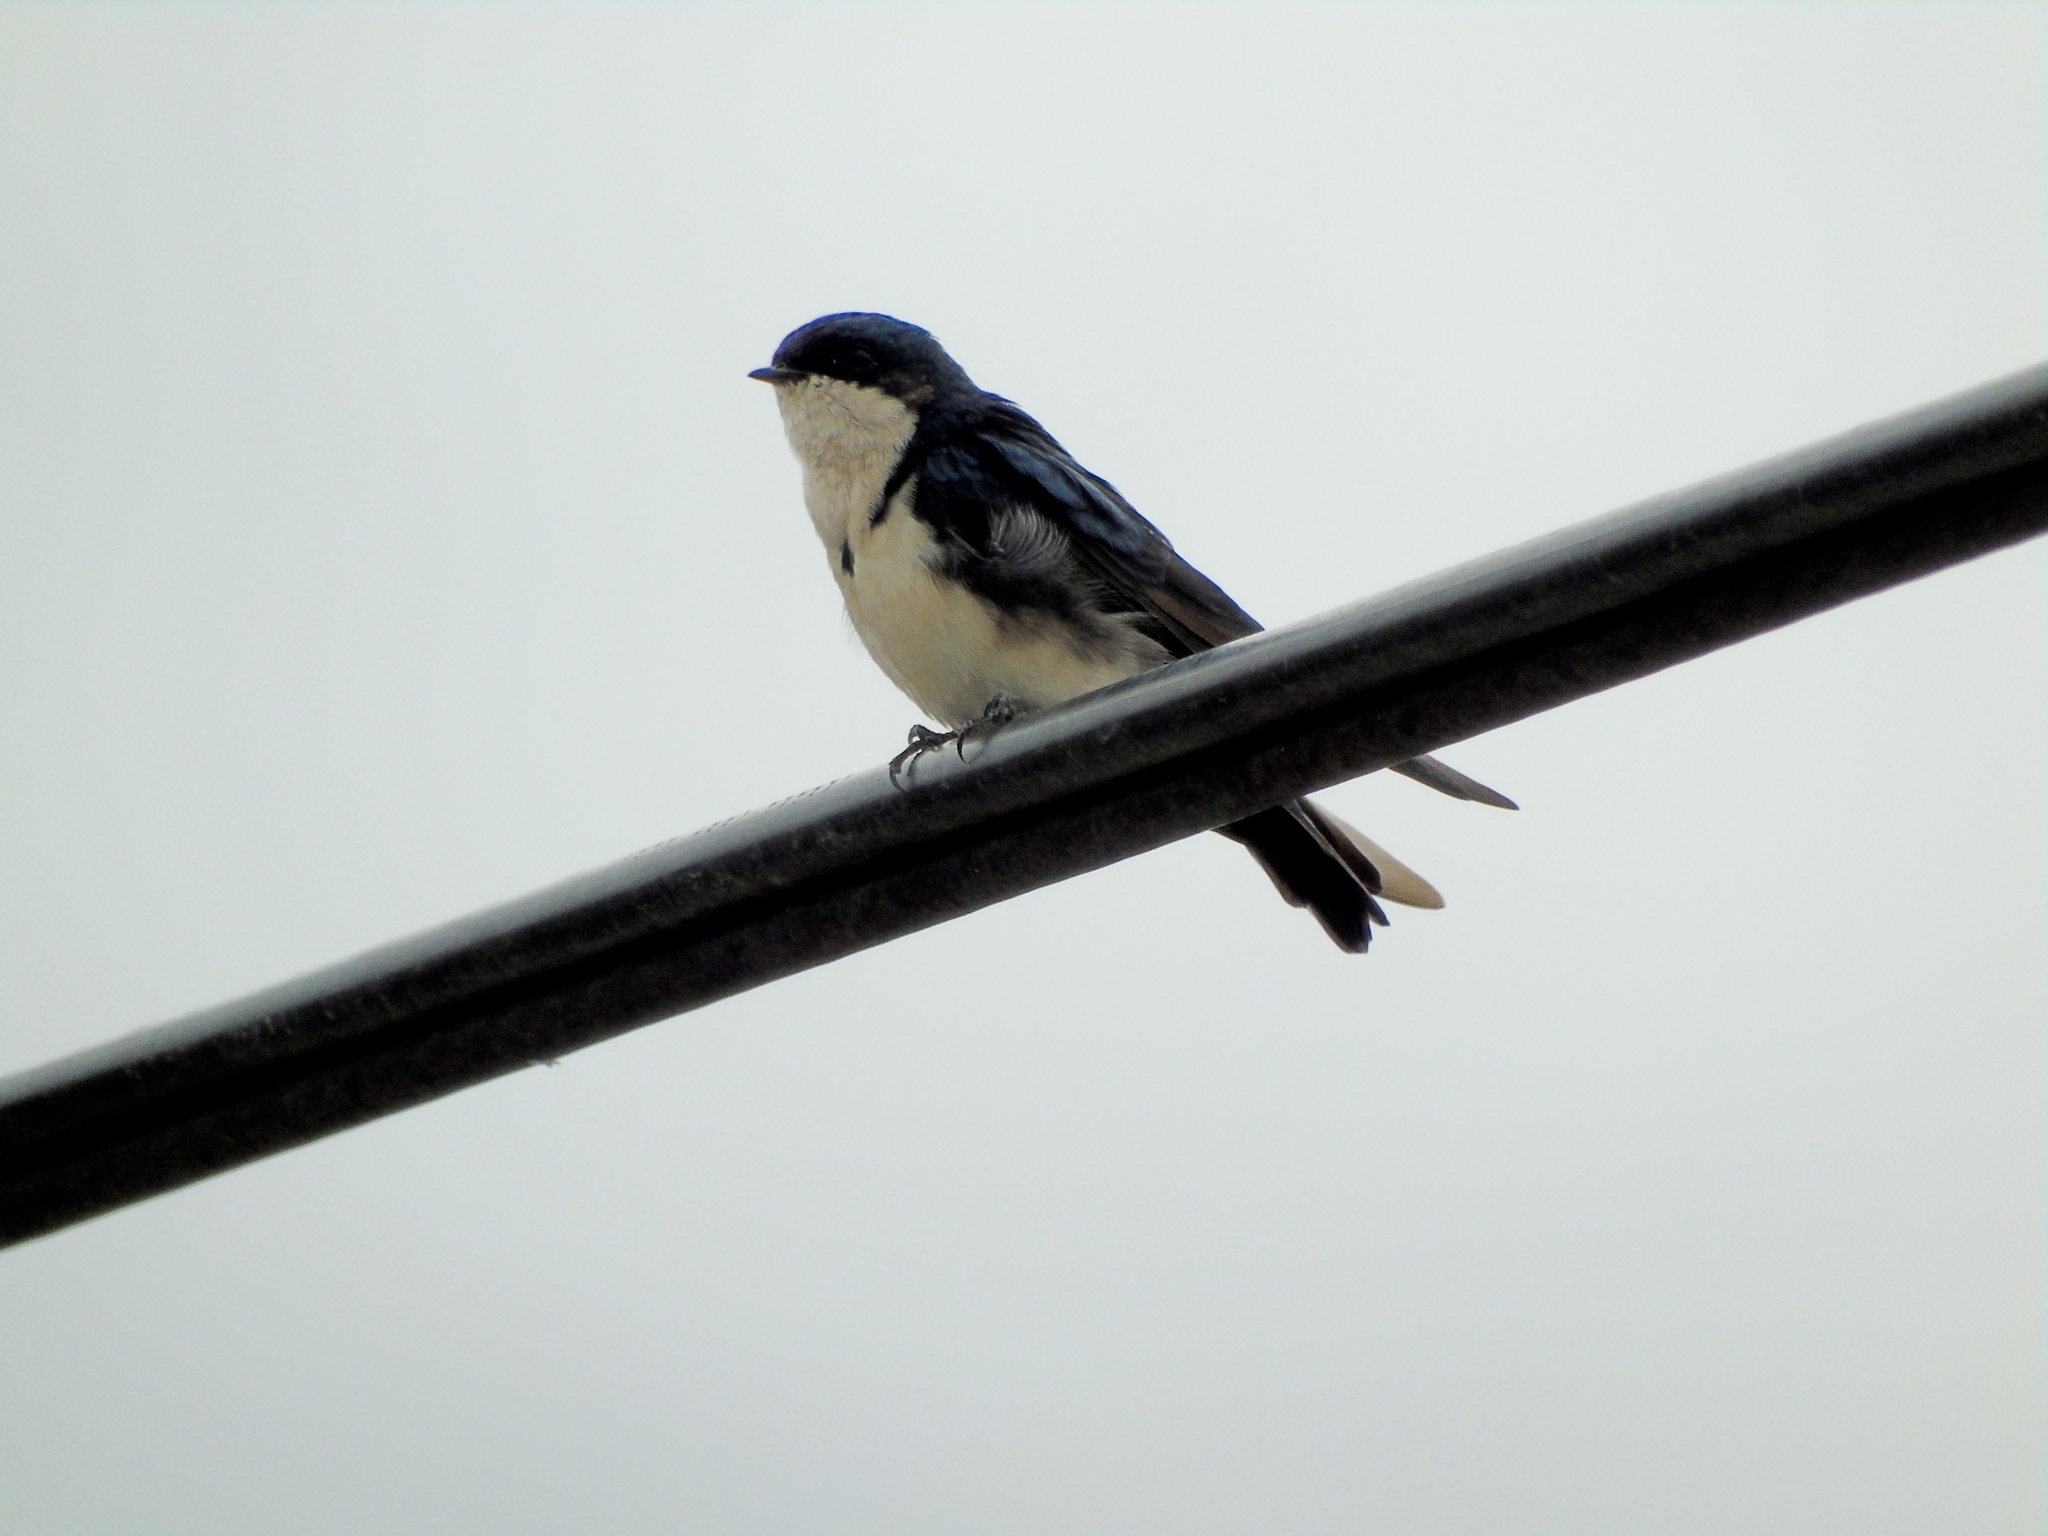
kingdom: Animalia
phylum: Chordata
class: Aves
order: Passeriformes
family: Hirundinidae
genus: Notiochelidon
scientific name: Notiochelidon cyanoleuca
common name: Blue-and-white swallow
